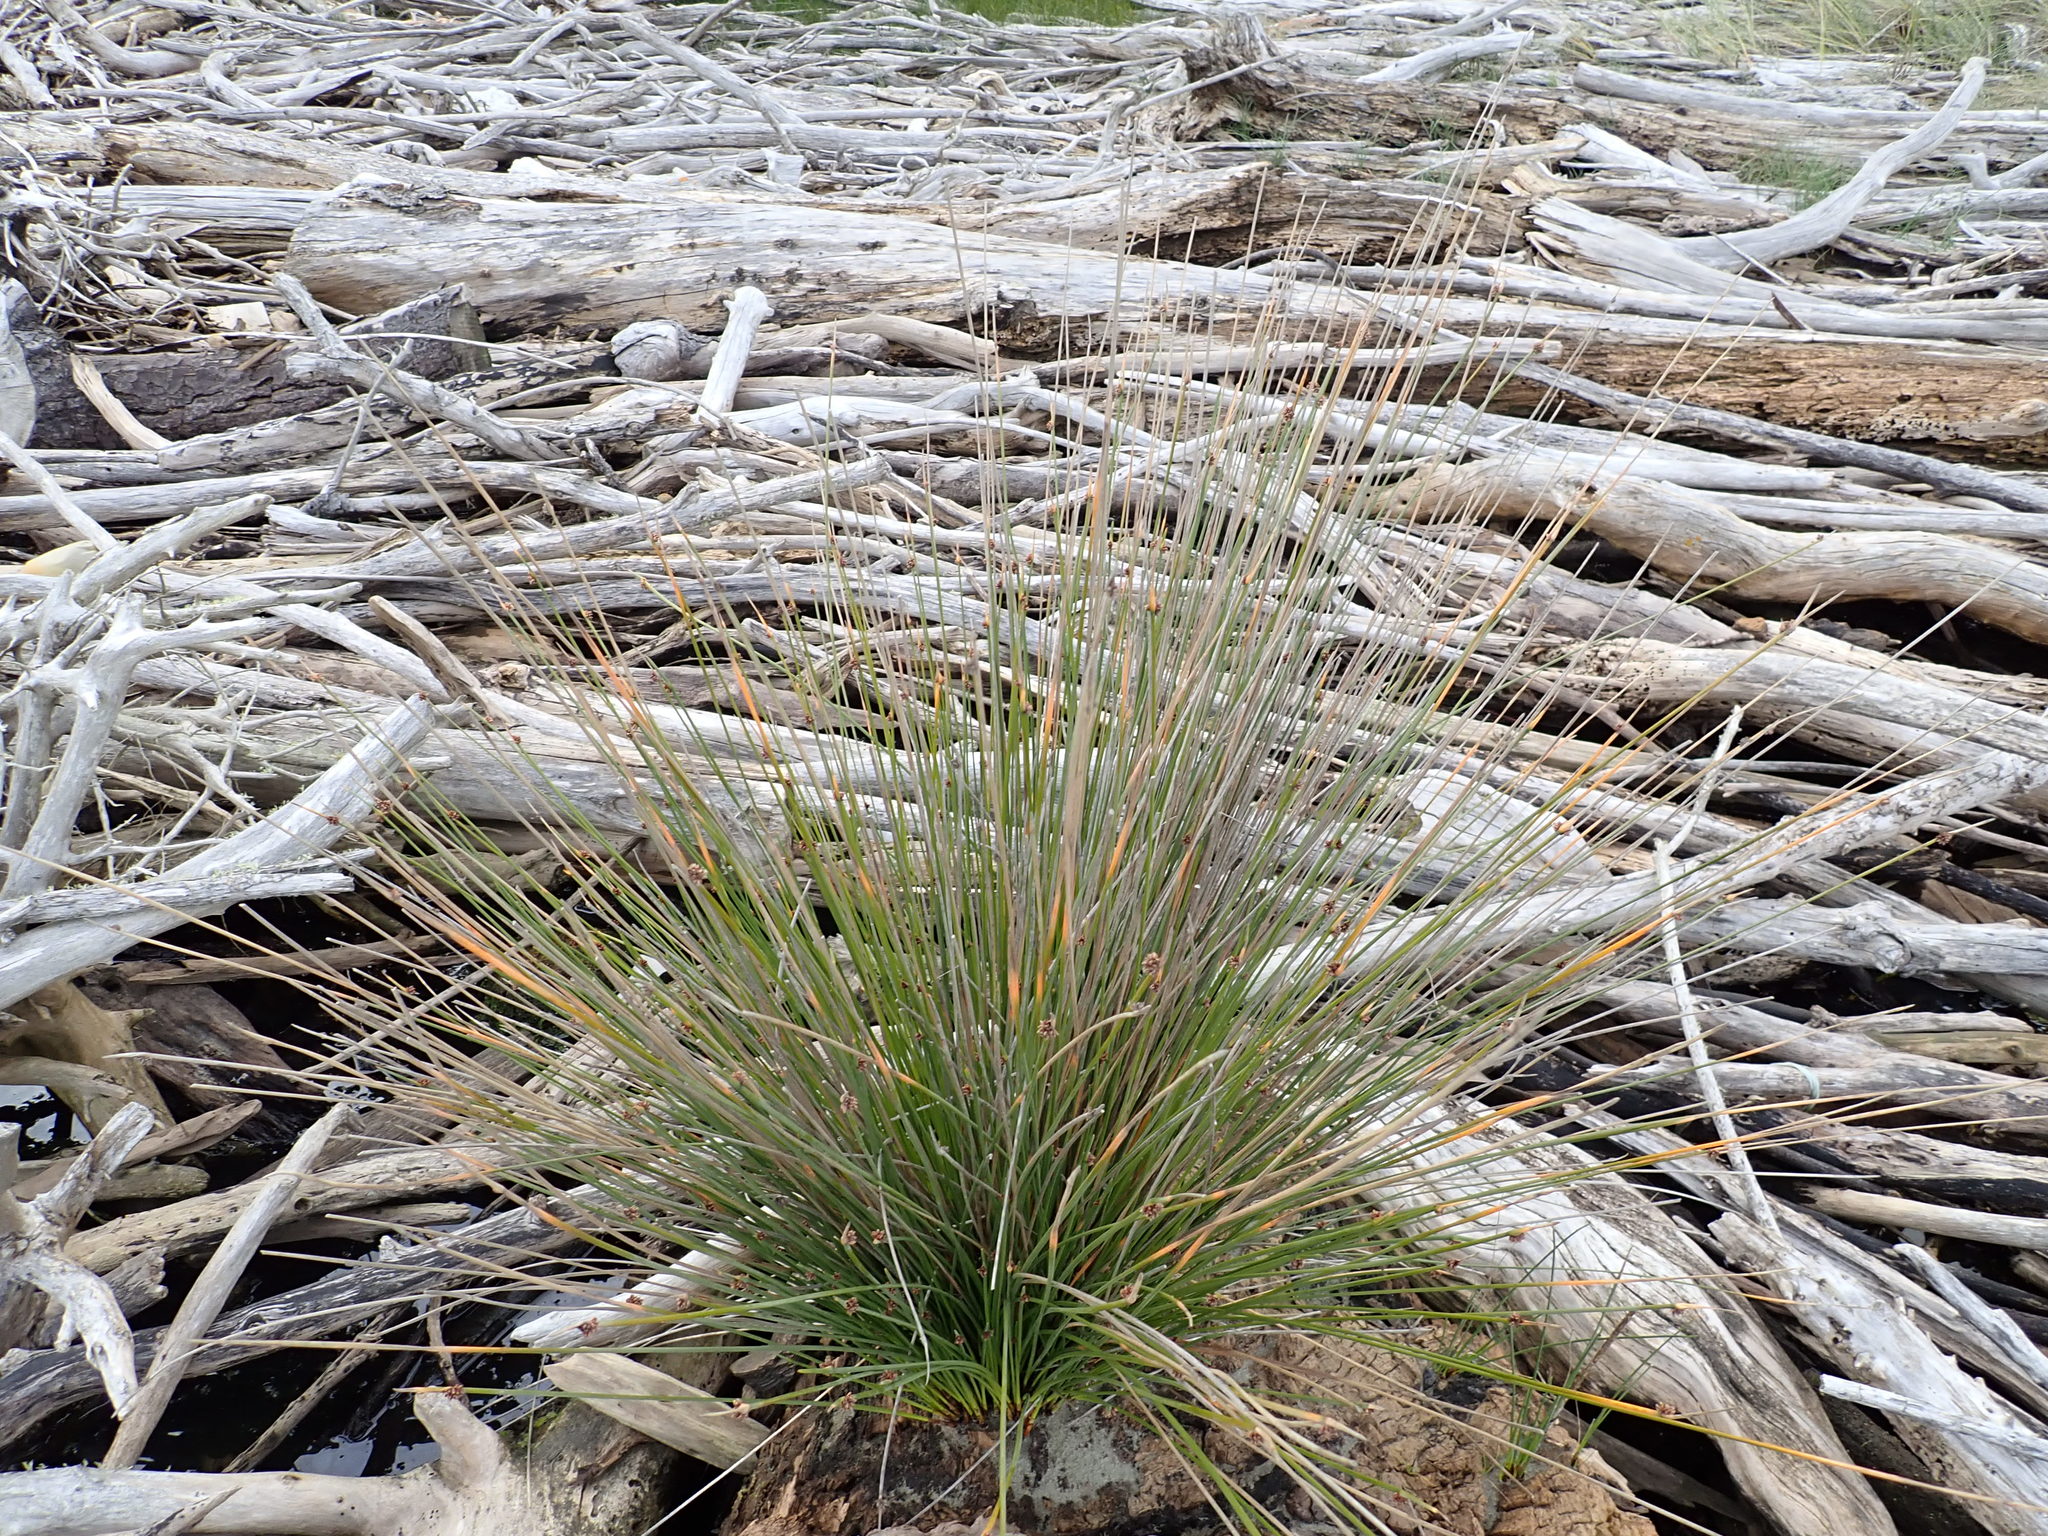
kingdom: Plantae
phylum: Tracheophyta
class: Liliopsida
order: Poales
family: Cyperaceae
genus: Ficinia
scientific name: Ficinia nodosa
